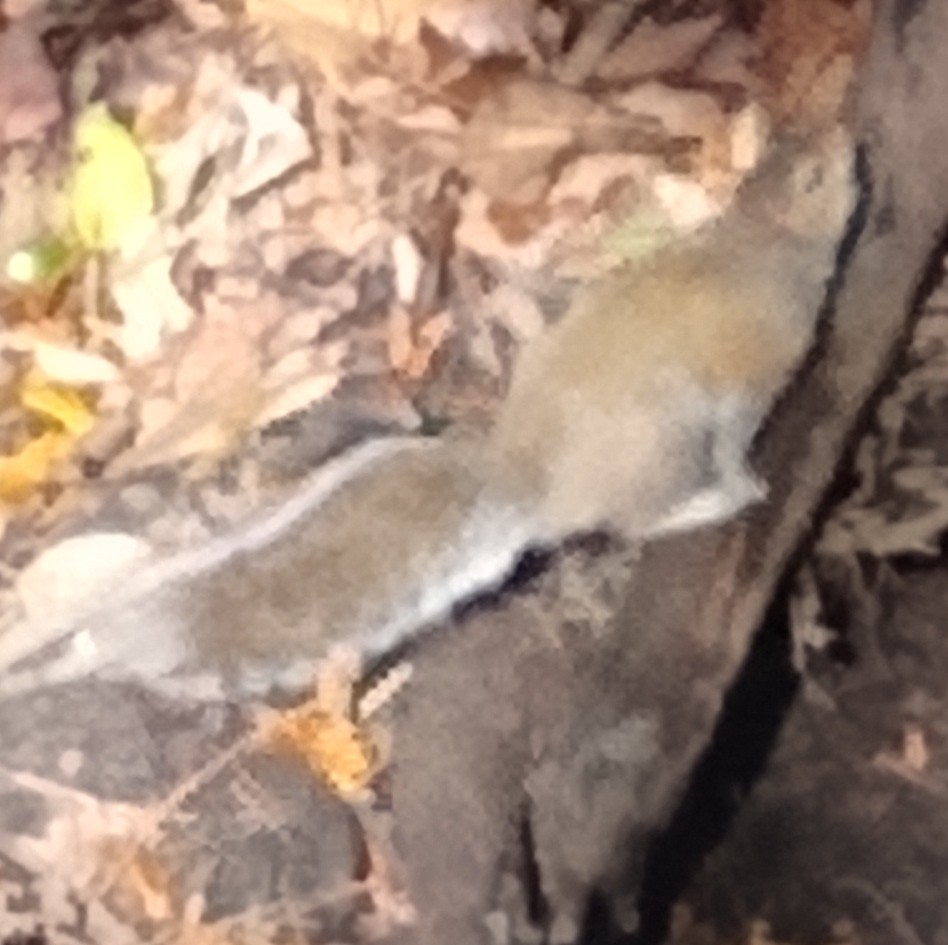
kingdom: Animalia
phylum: Chordata
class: Mammalia
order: Rodentia
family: Sciuridae
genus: Sciurus
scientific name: Sciurus carolinensis
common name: Eastern gray squirrel
